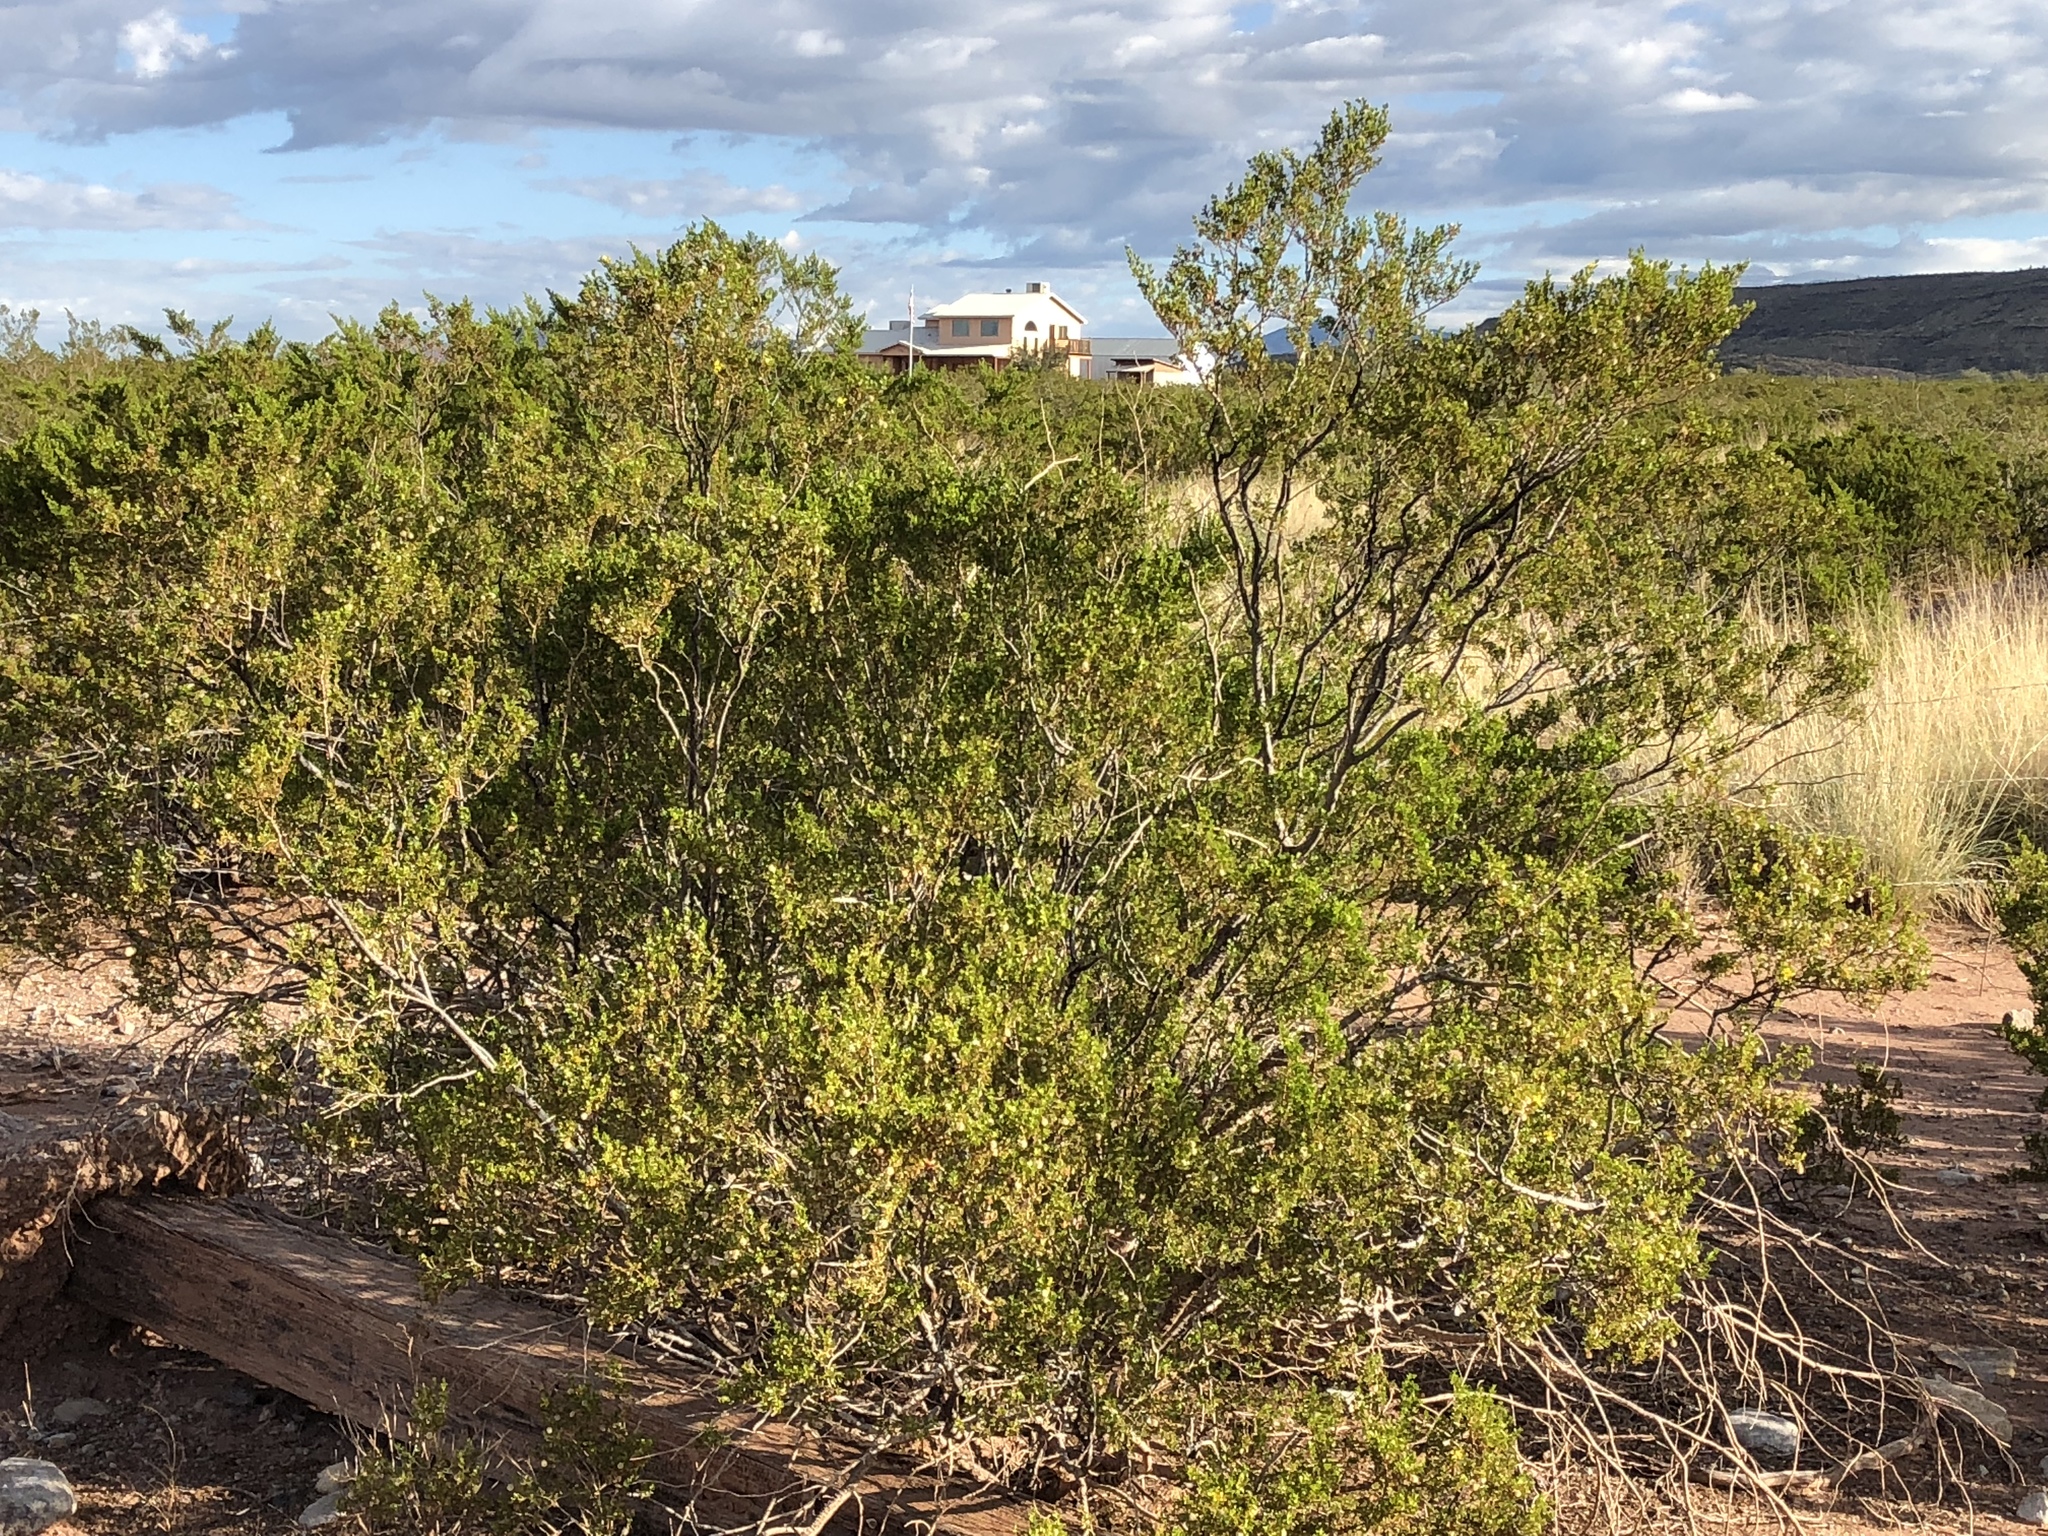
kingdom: Plantae
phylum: Tracheophyta
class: Magnoliopsida
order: Zygophyllales
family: Zygophyllaceae
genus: Larrea
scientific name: Larrea tridentata
